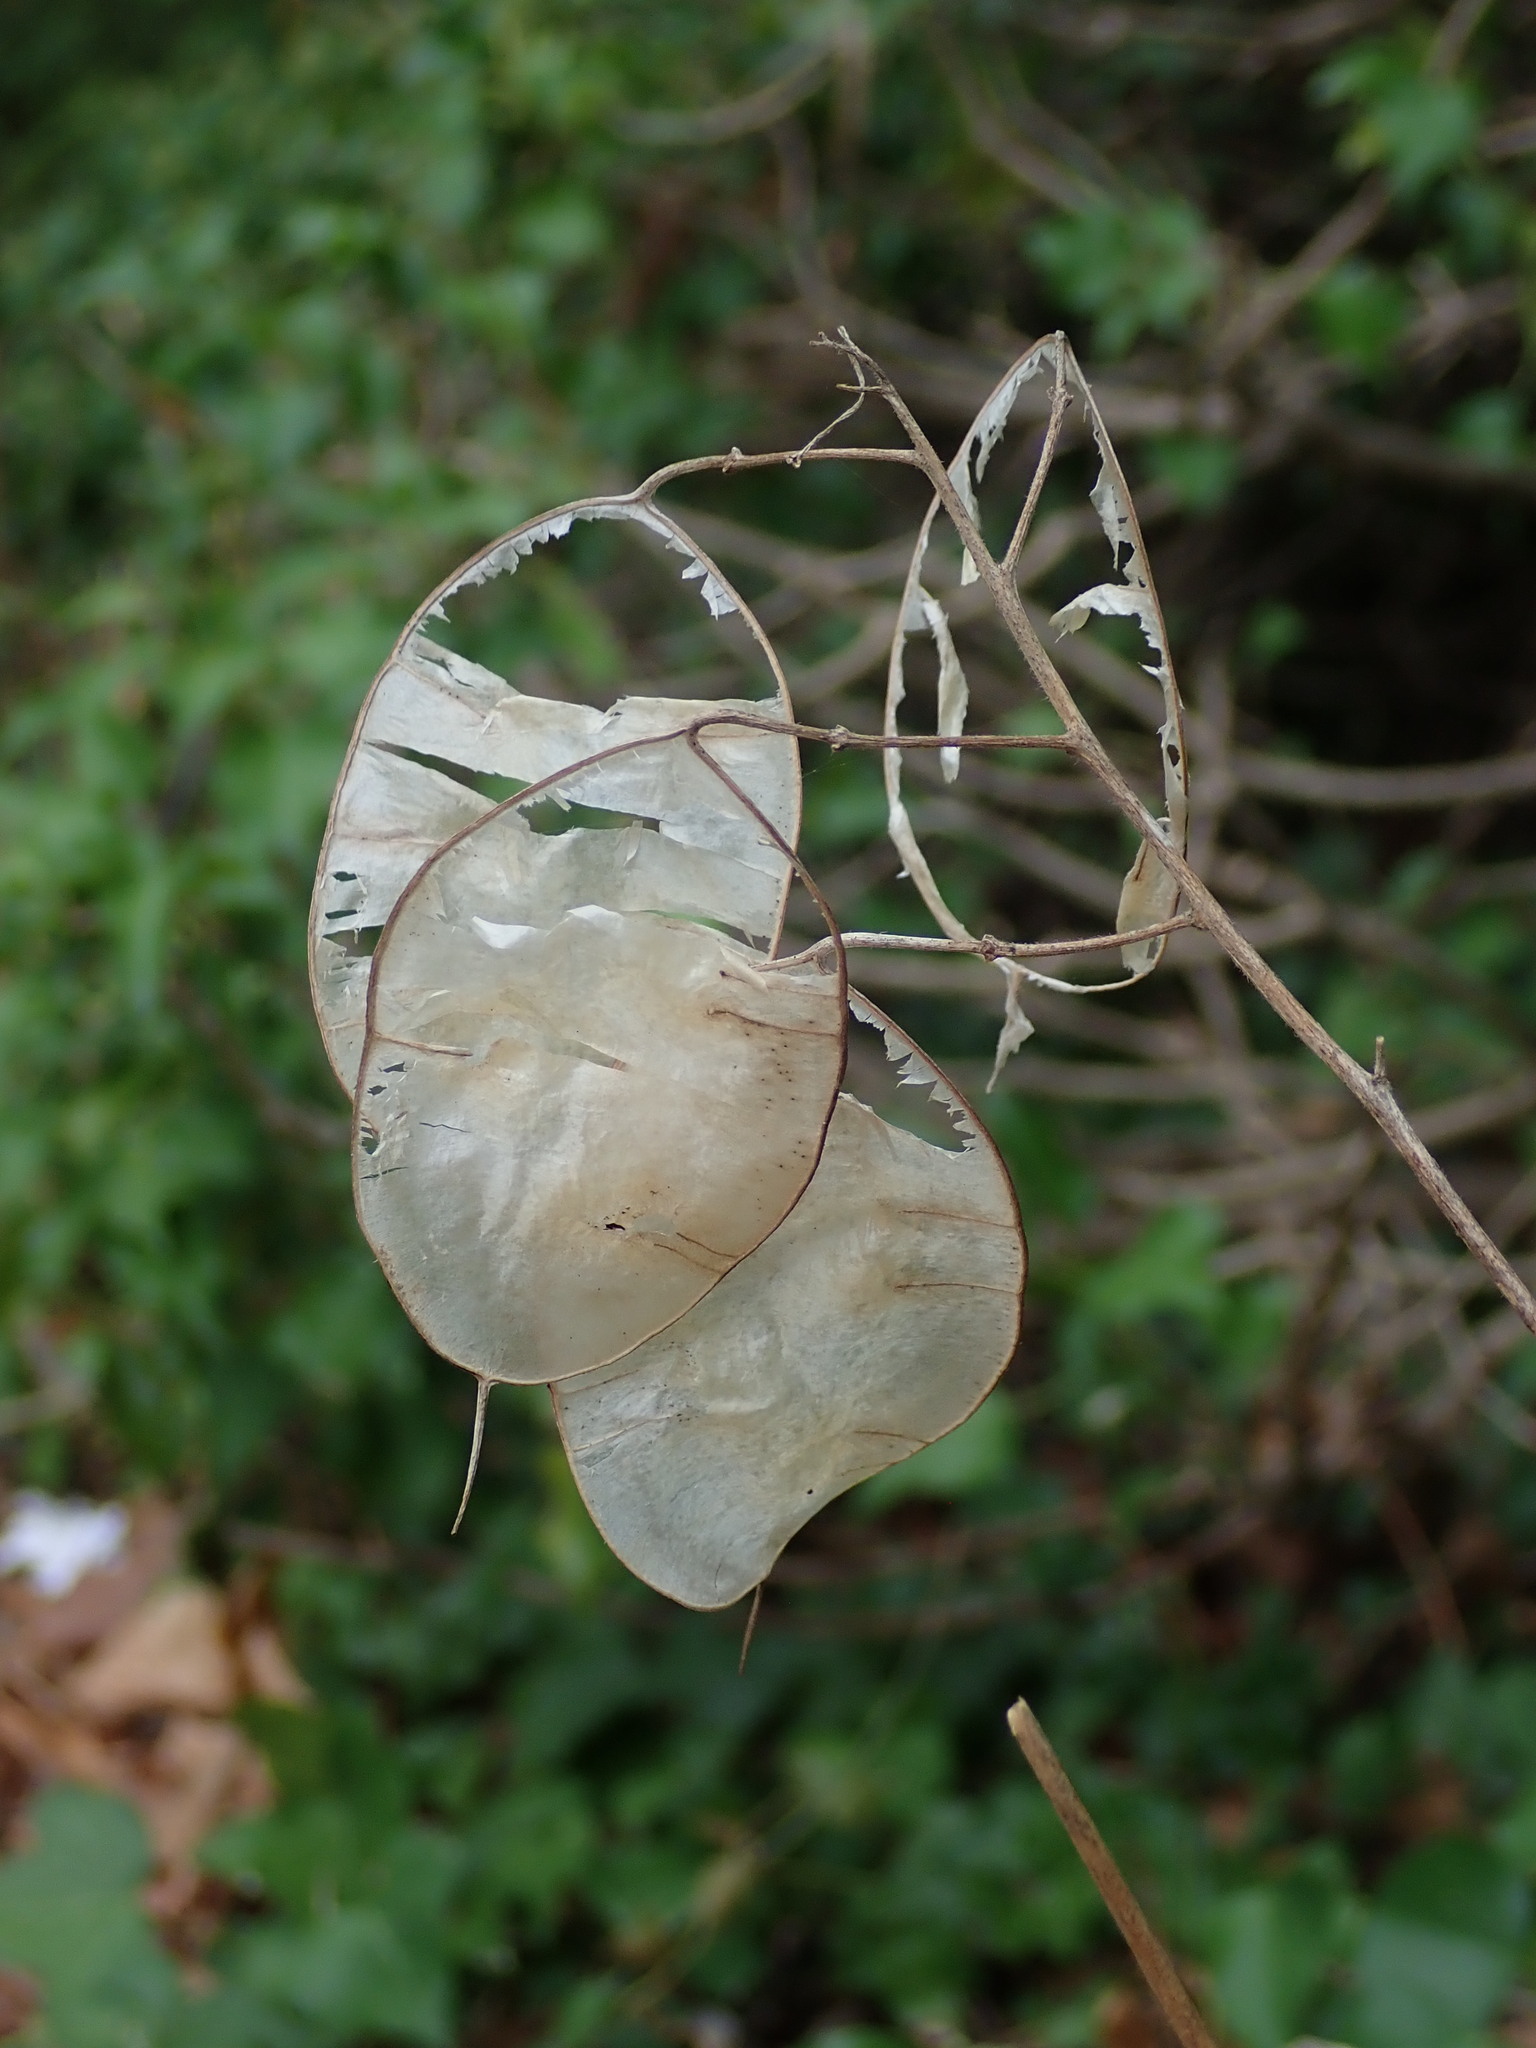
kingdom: Plantae
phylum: Tracheophyta
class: Magnoliopsida
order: Brassicales
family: Brassicaceae
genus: Lunaria
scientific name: Lunaria annua
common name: Honesty
